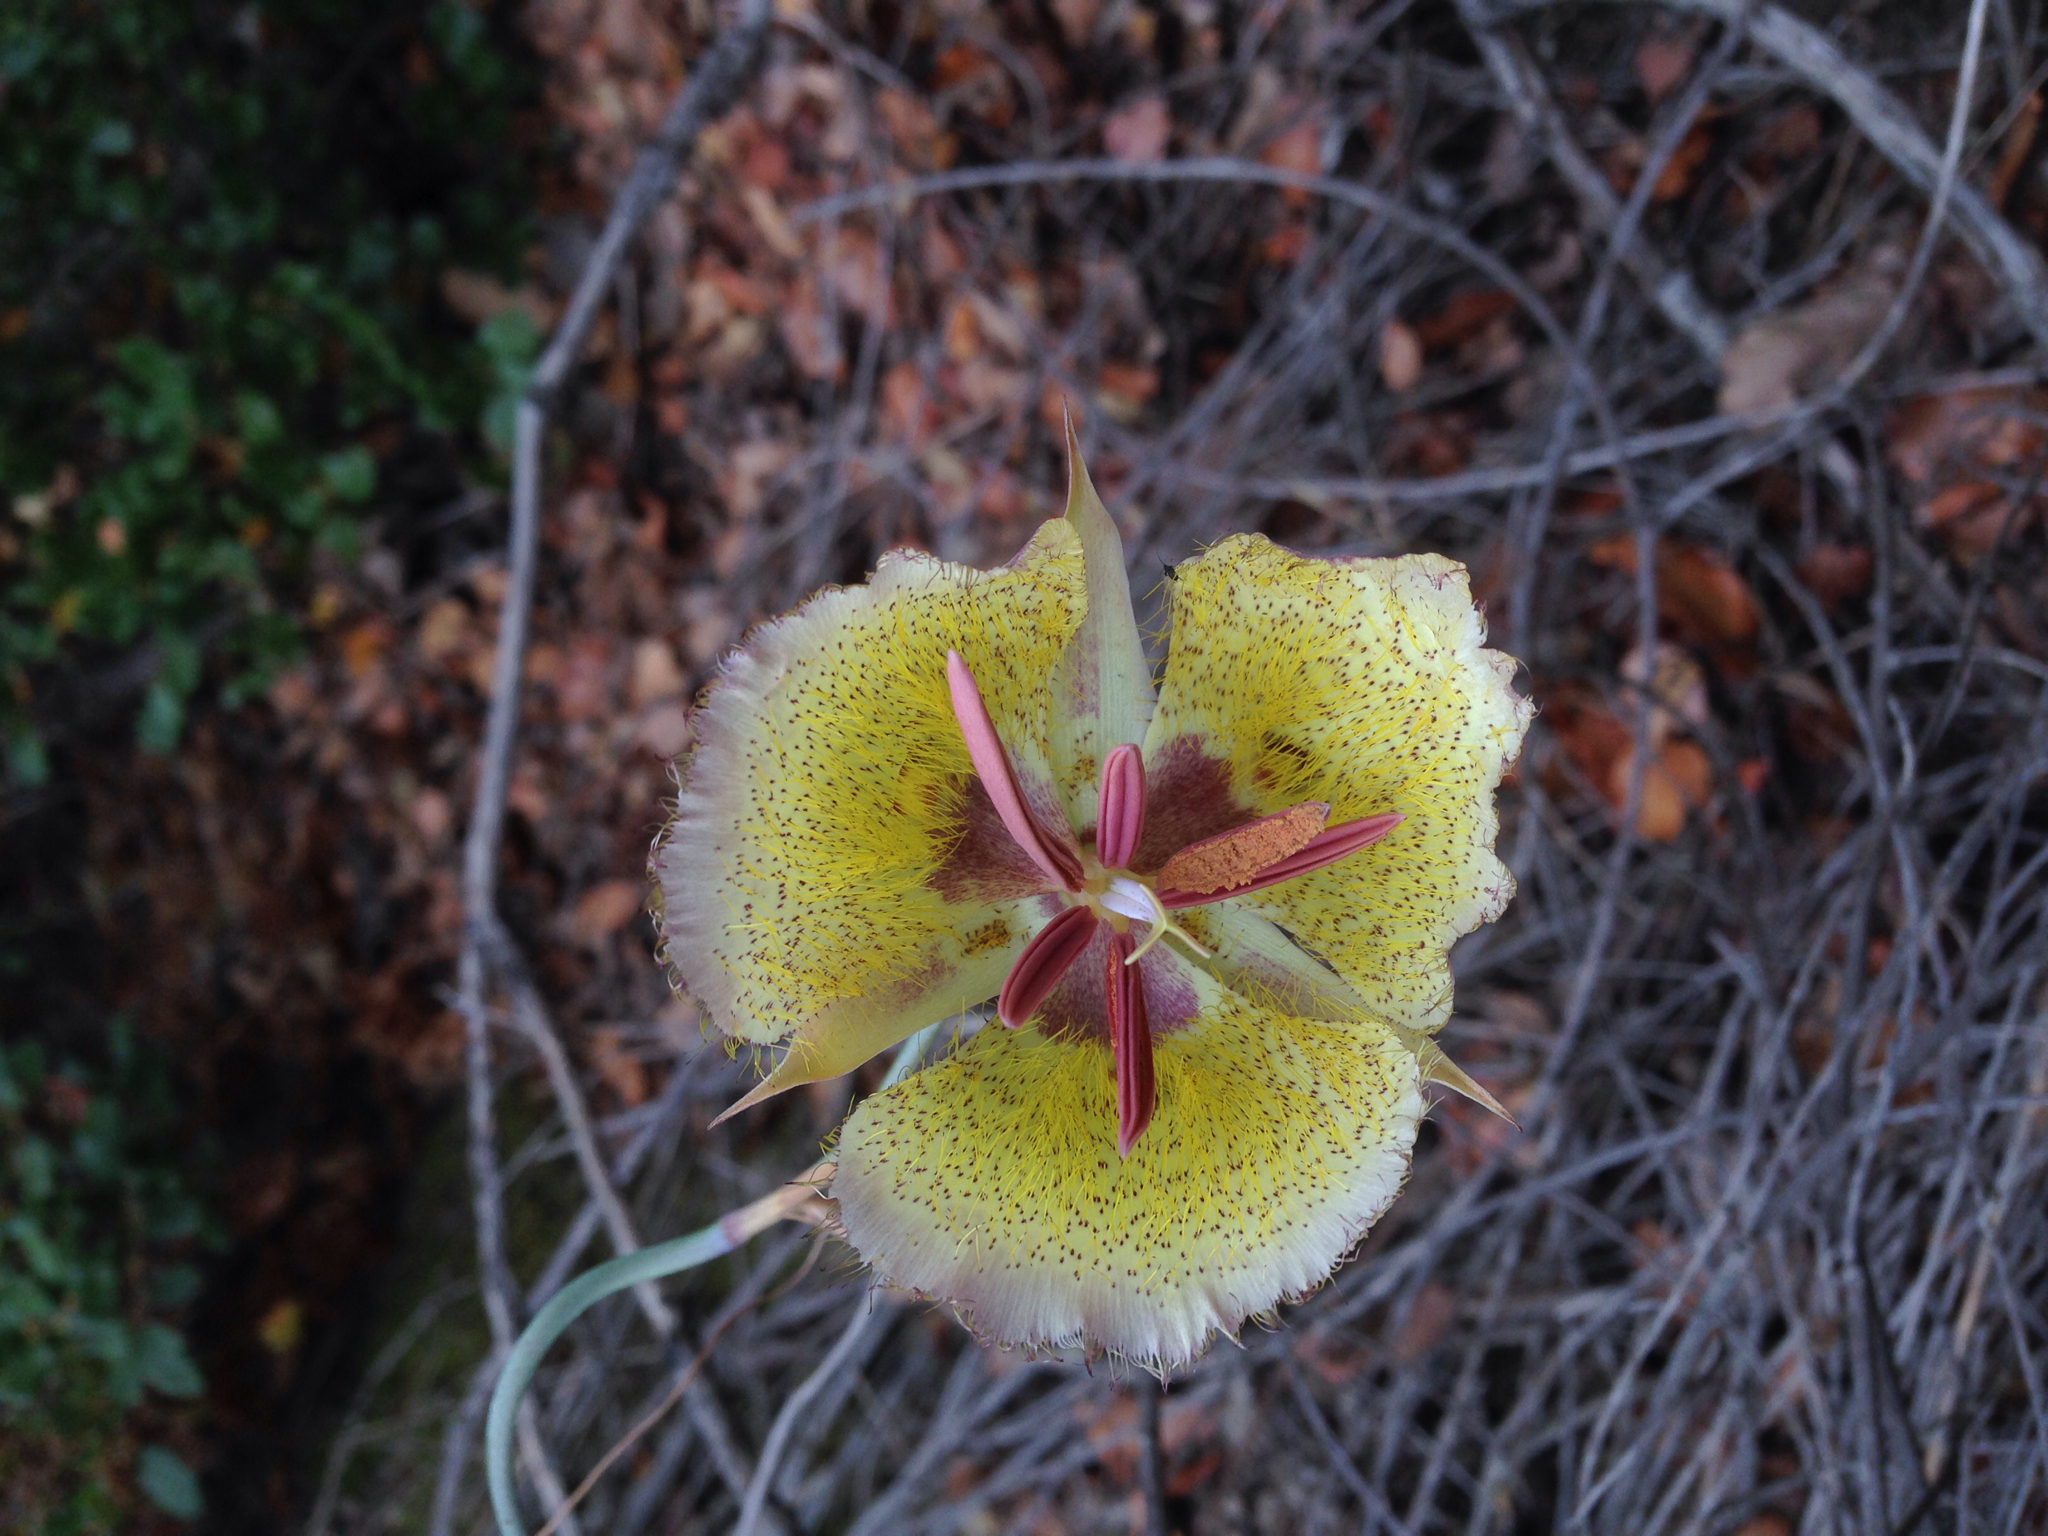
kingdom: Plantae
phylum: Tracheophyta
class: Liliopsida
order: Liliales
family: Liliaceae
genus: Calochortus
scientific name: Calochortus weedii
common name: Weed's mariposa-lily
